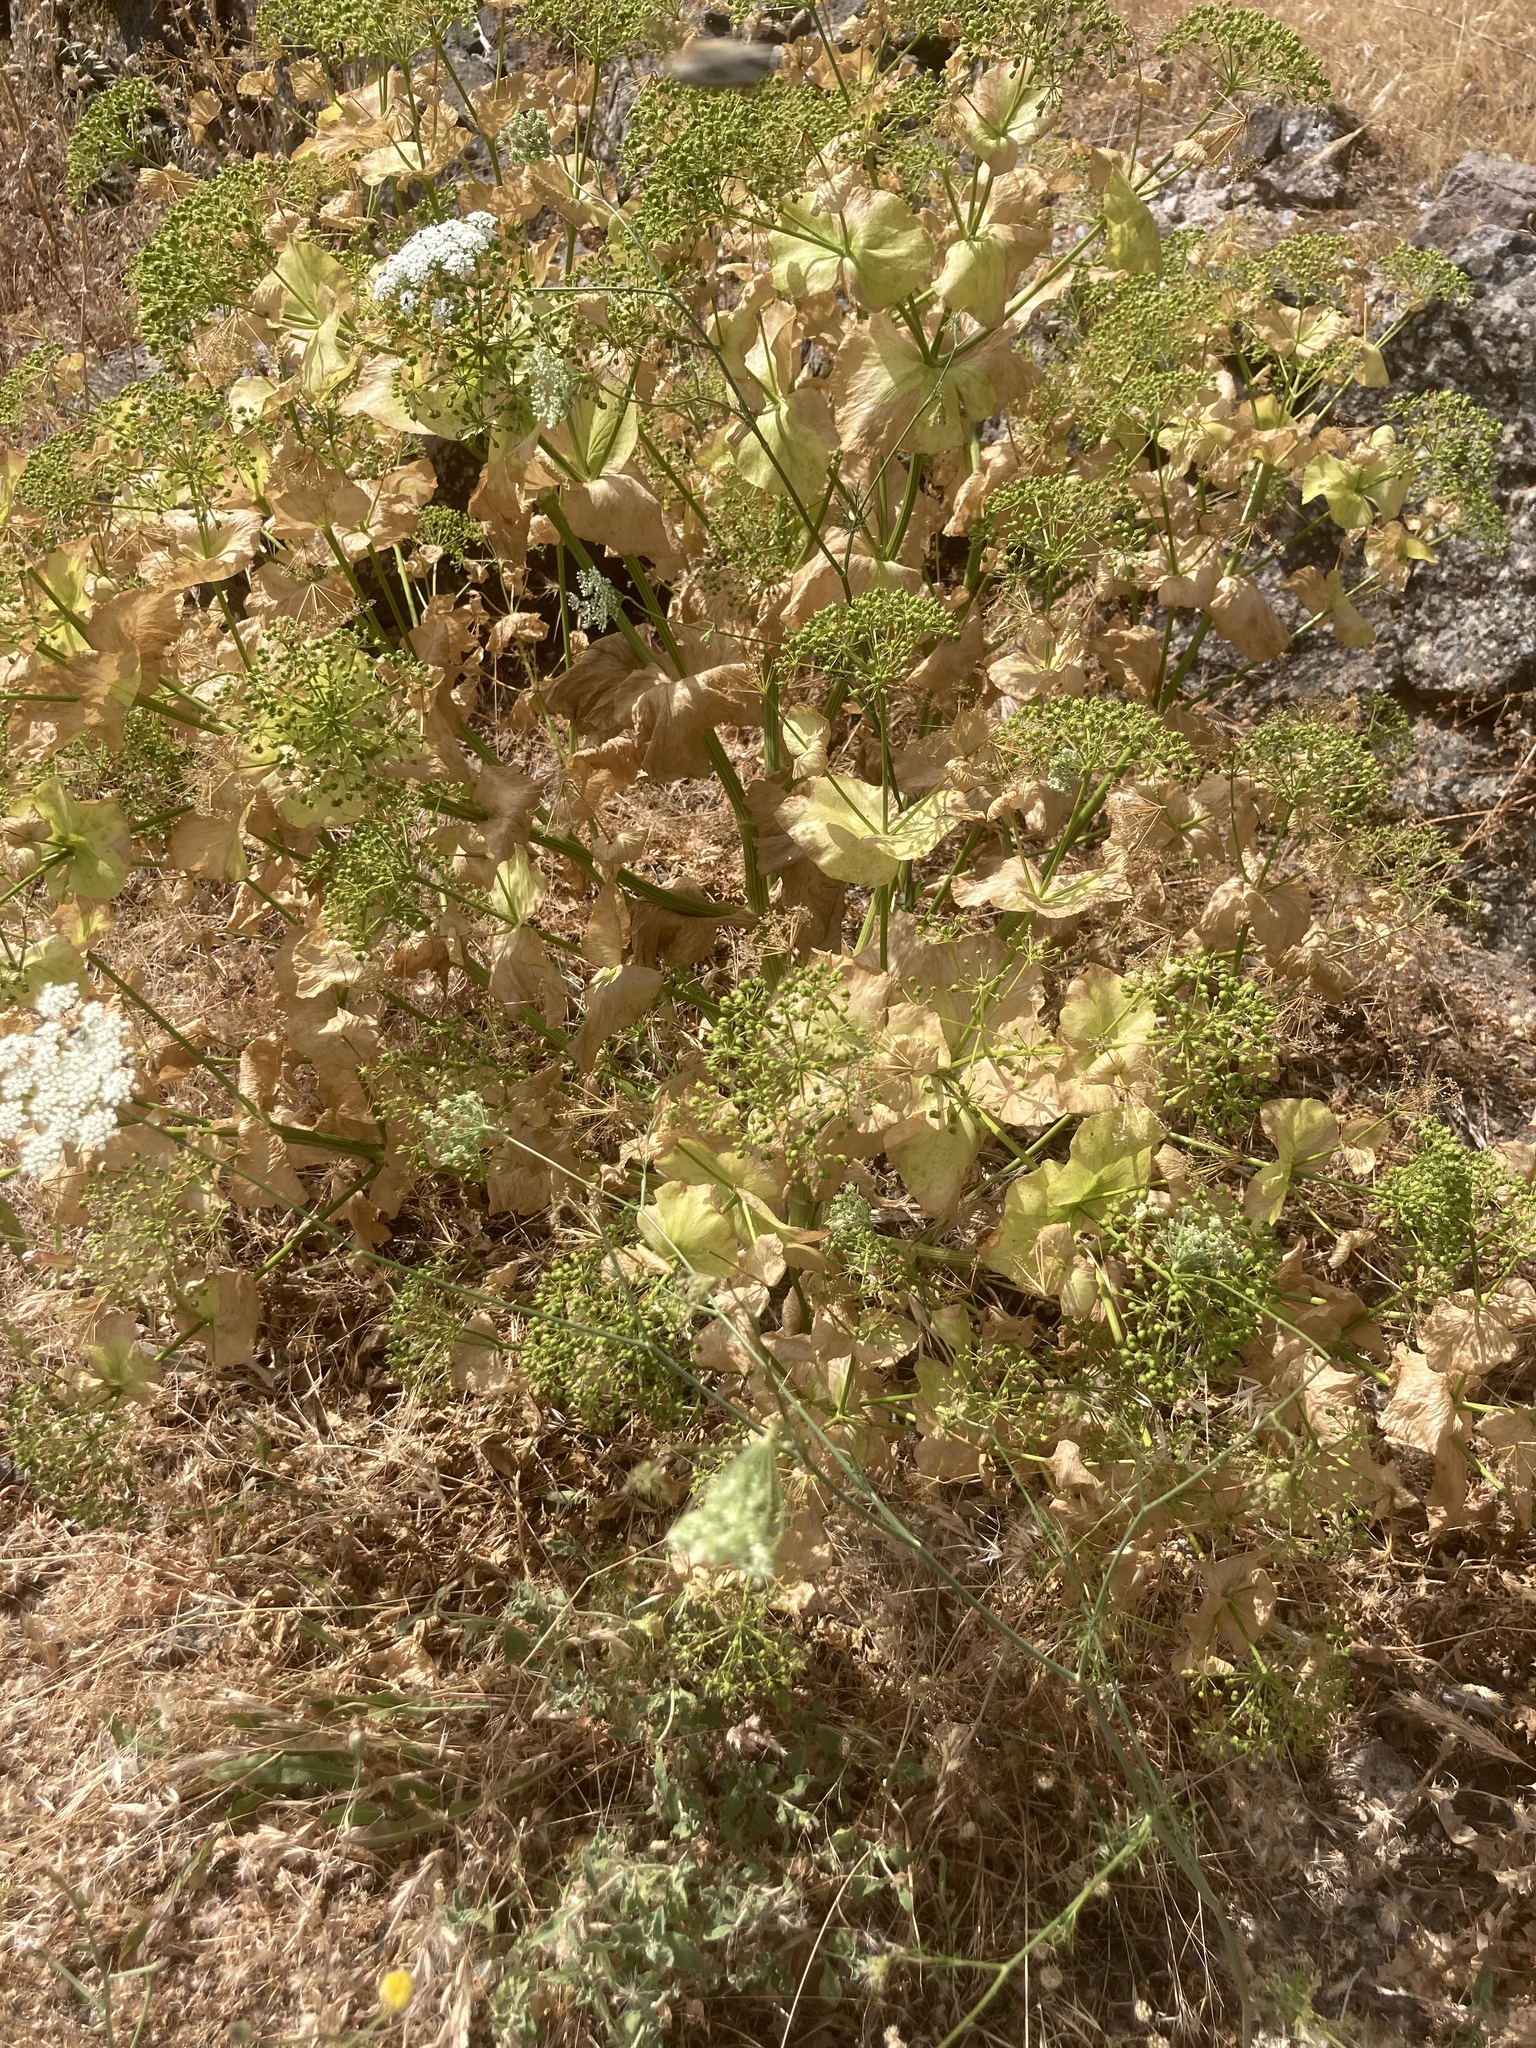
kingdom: Plantae
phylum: Tracheophyta
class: Magnoliopsida
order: Apiales
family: Apiaceae
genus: Smyrnium
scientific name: Smyrnium perfoliatum
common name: Perfoliate alexanders
